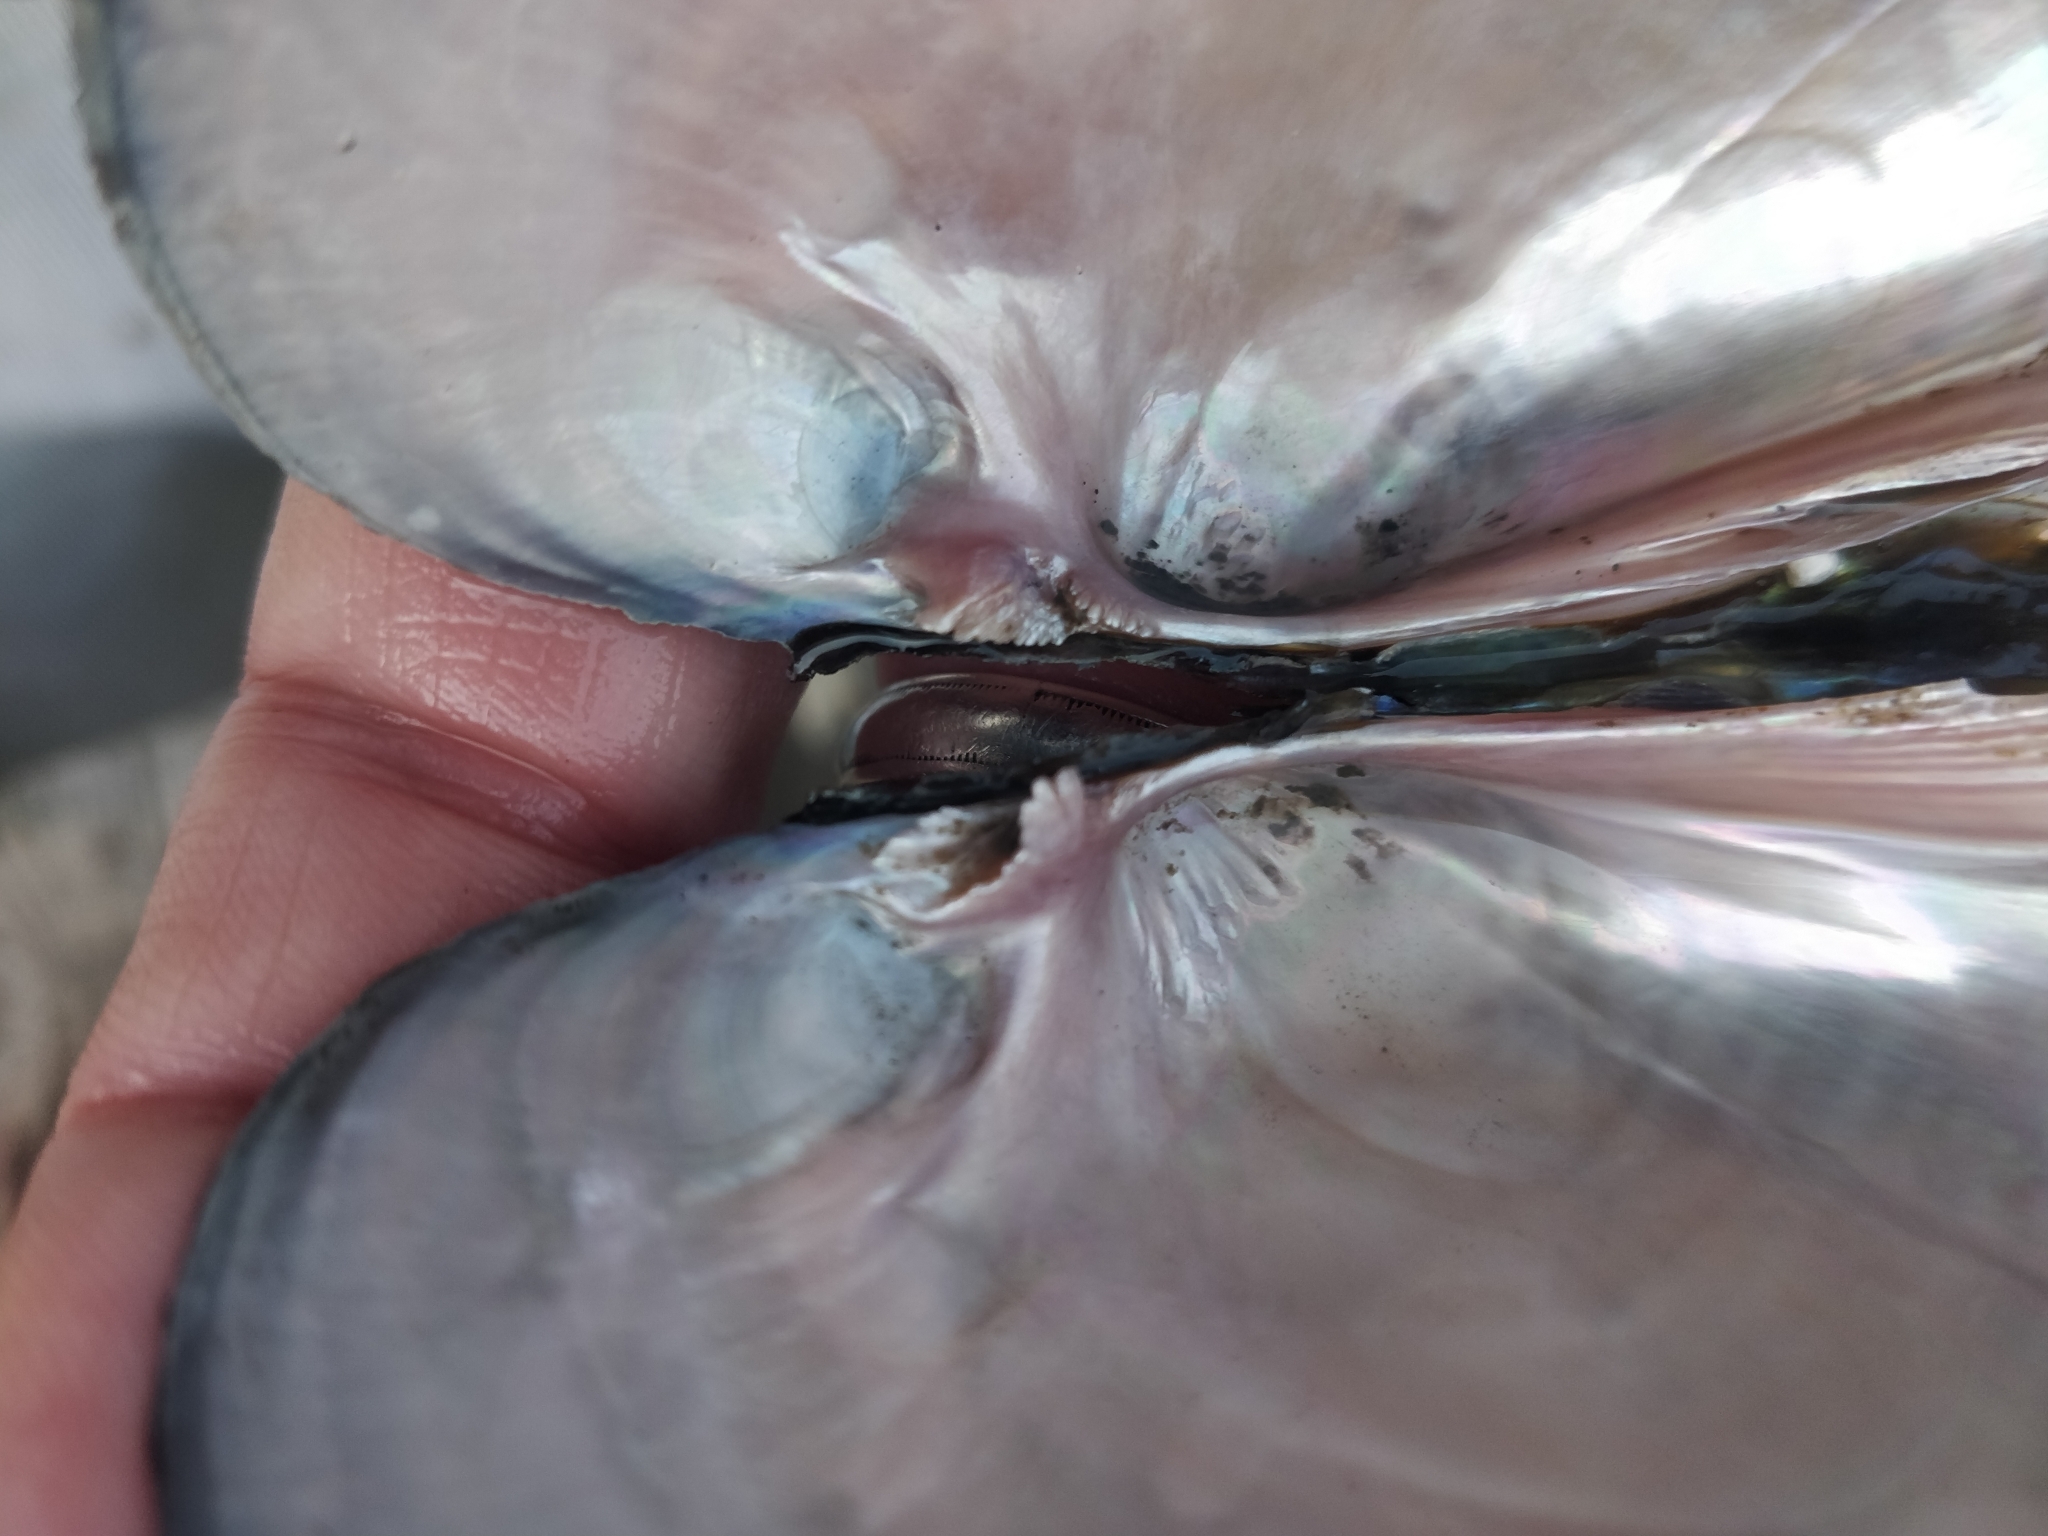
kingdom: Animalia
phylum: Mollusca
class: Bivalvia
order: Unionida
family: Unionidae
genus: Potamilus
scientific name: Potamilus alatus
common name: Pink heelsplitter
